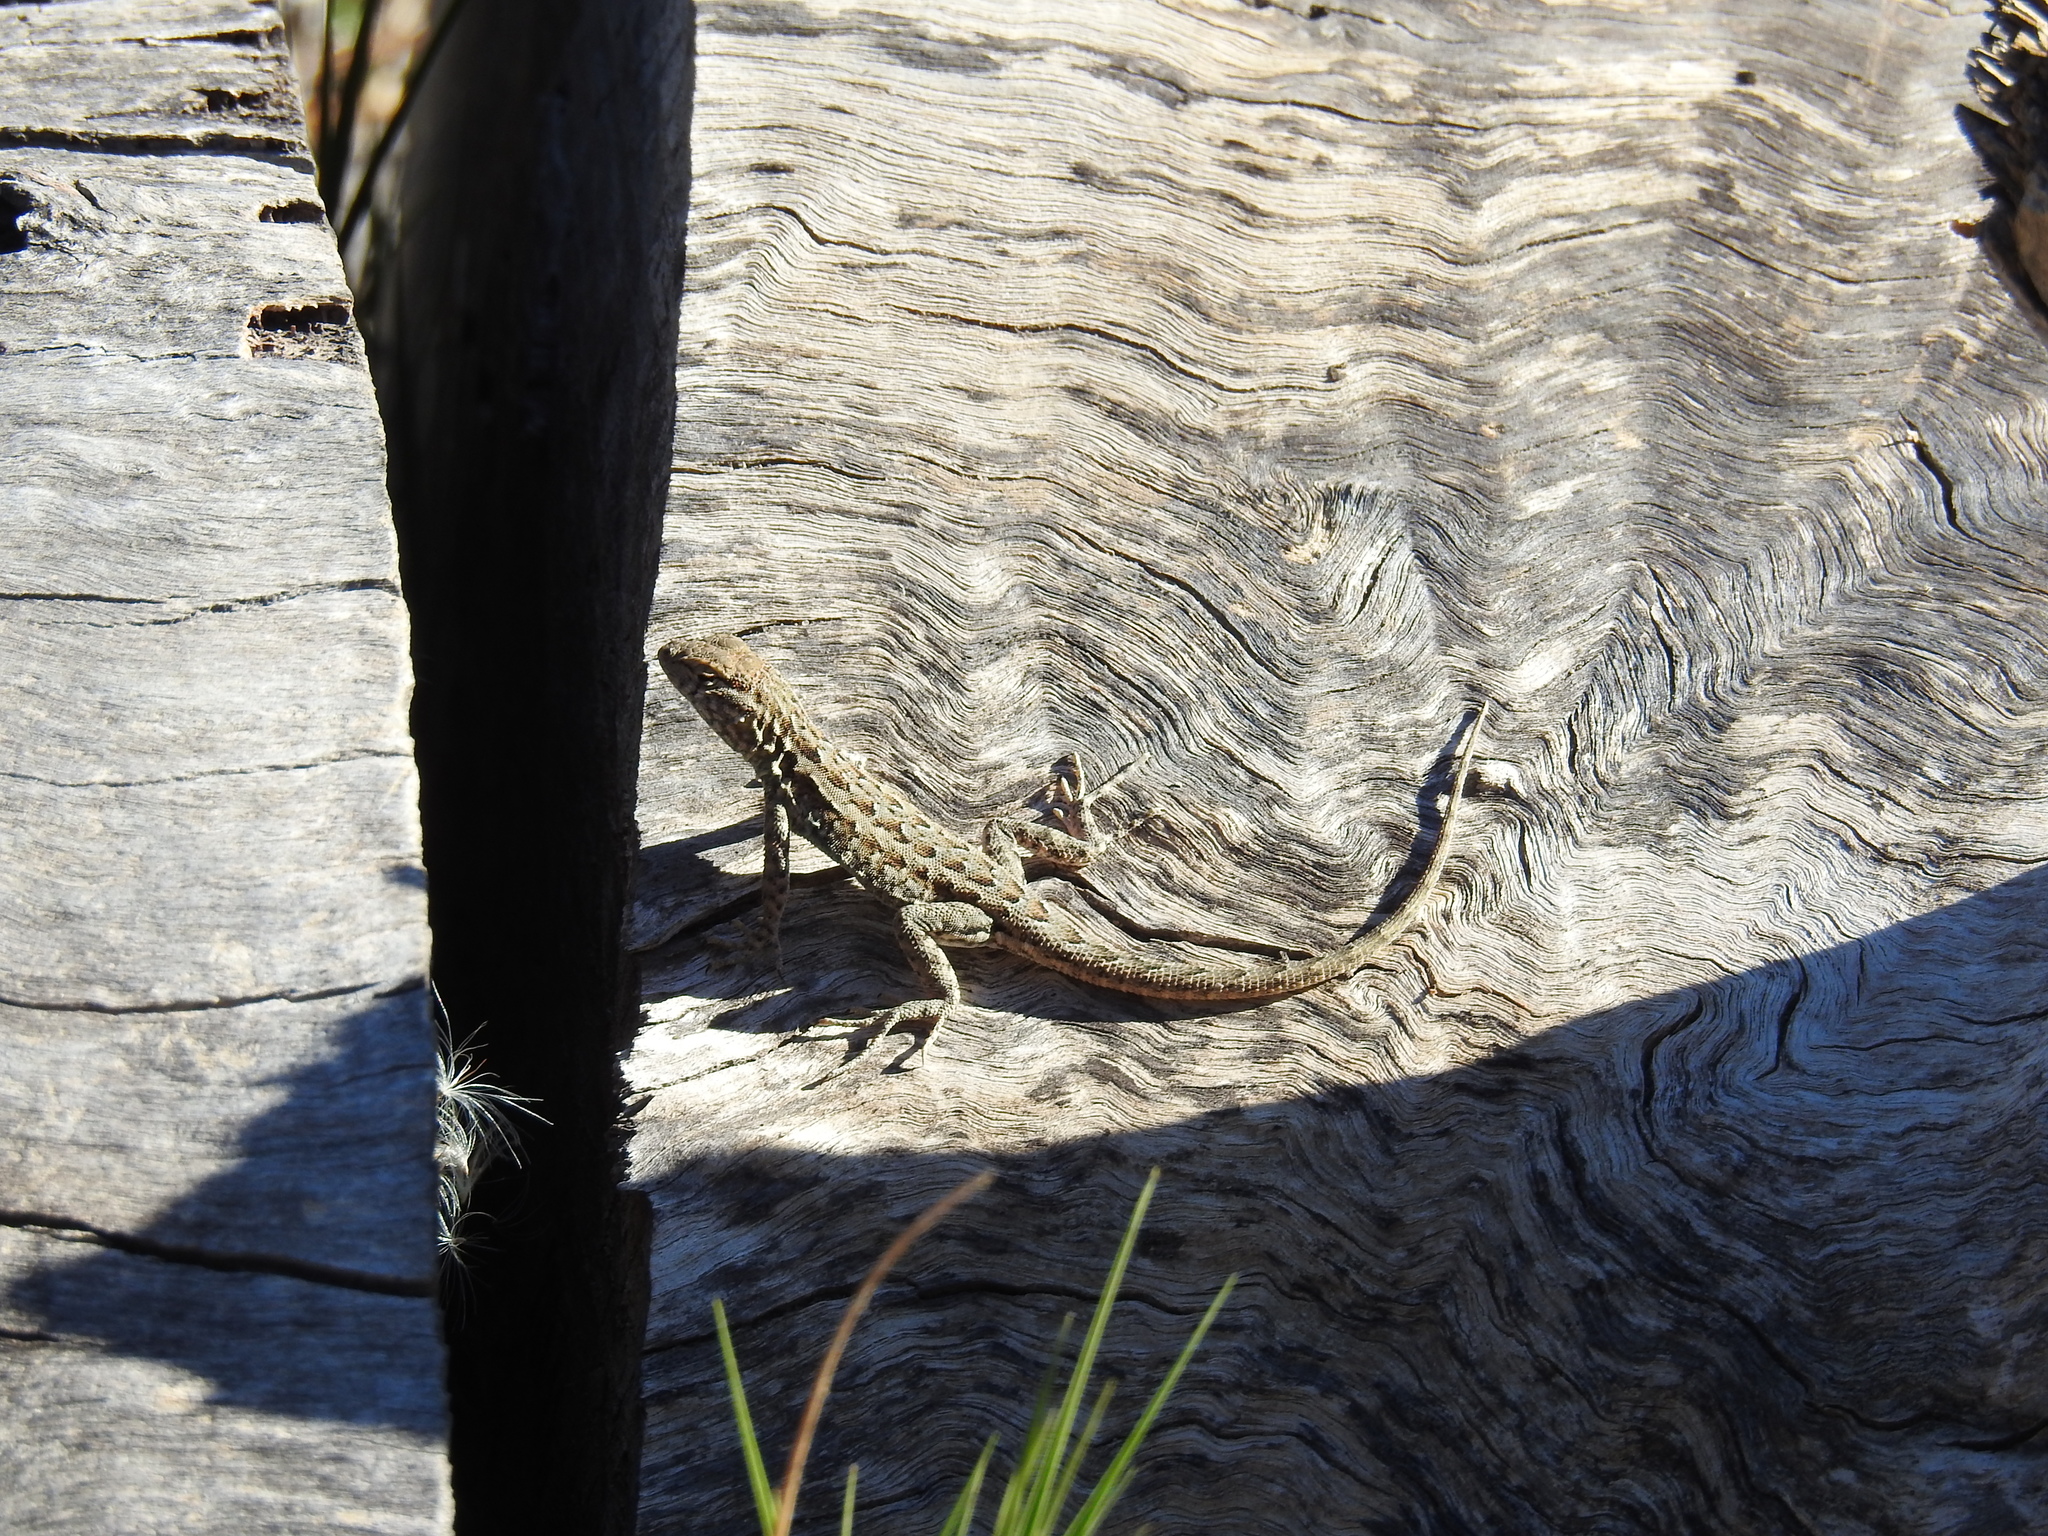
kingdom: Animalia
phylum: Chordata
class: Squamata
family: Phrynosomatidae
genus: Uta
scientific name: Uta stansburiana
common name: Side-blotched lizard
